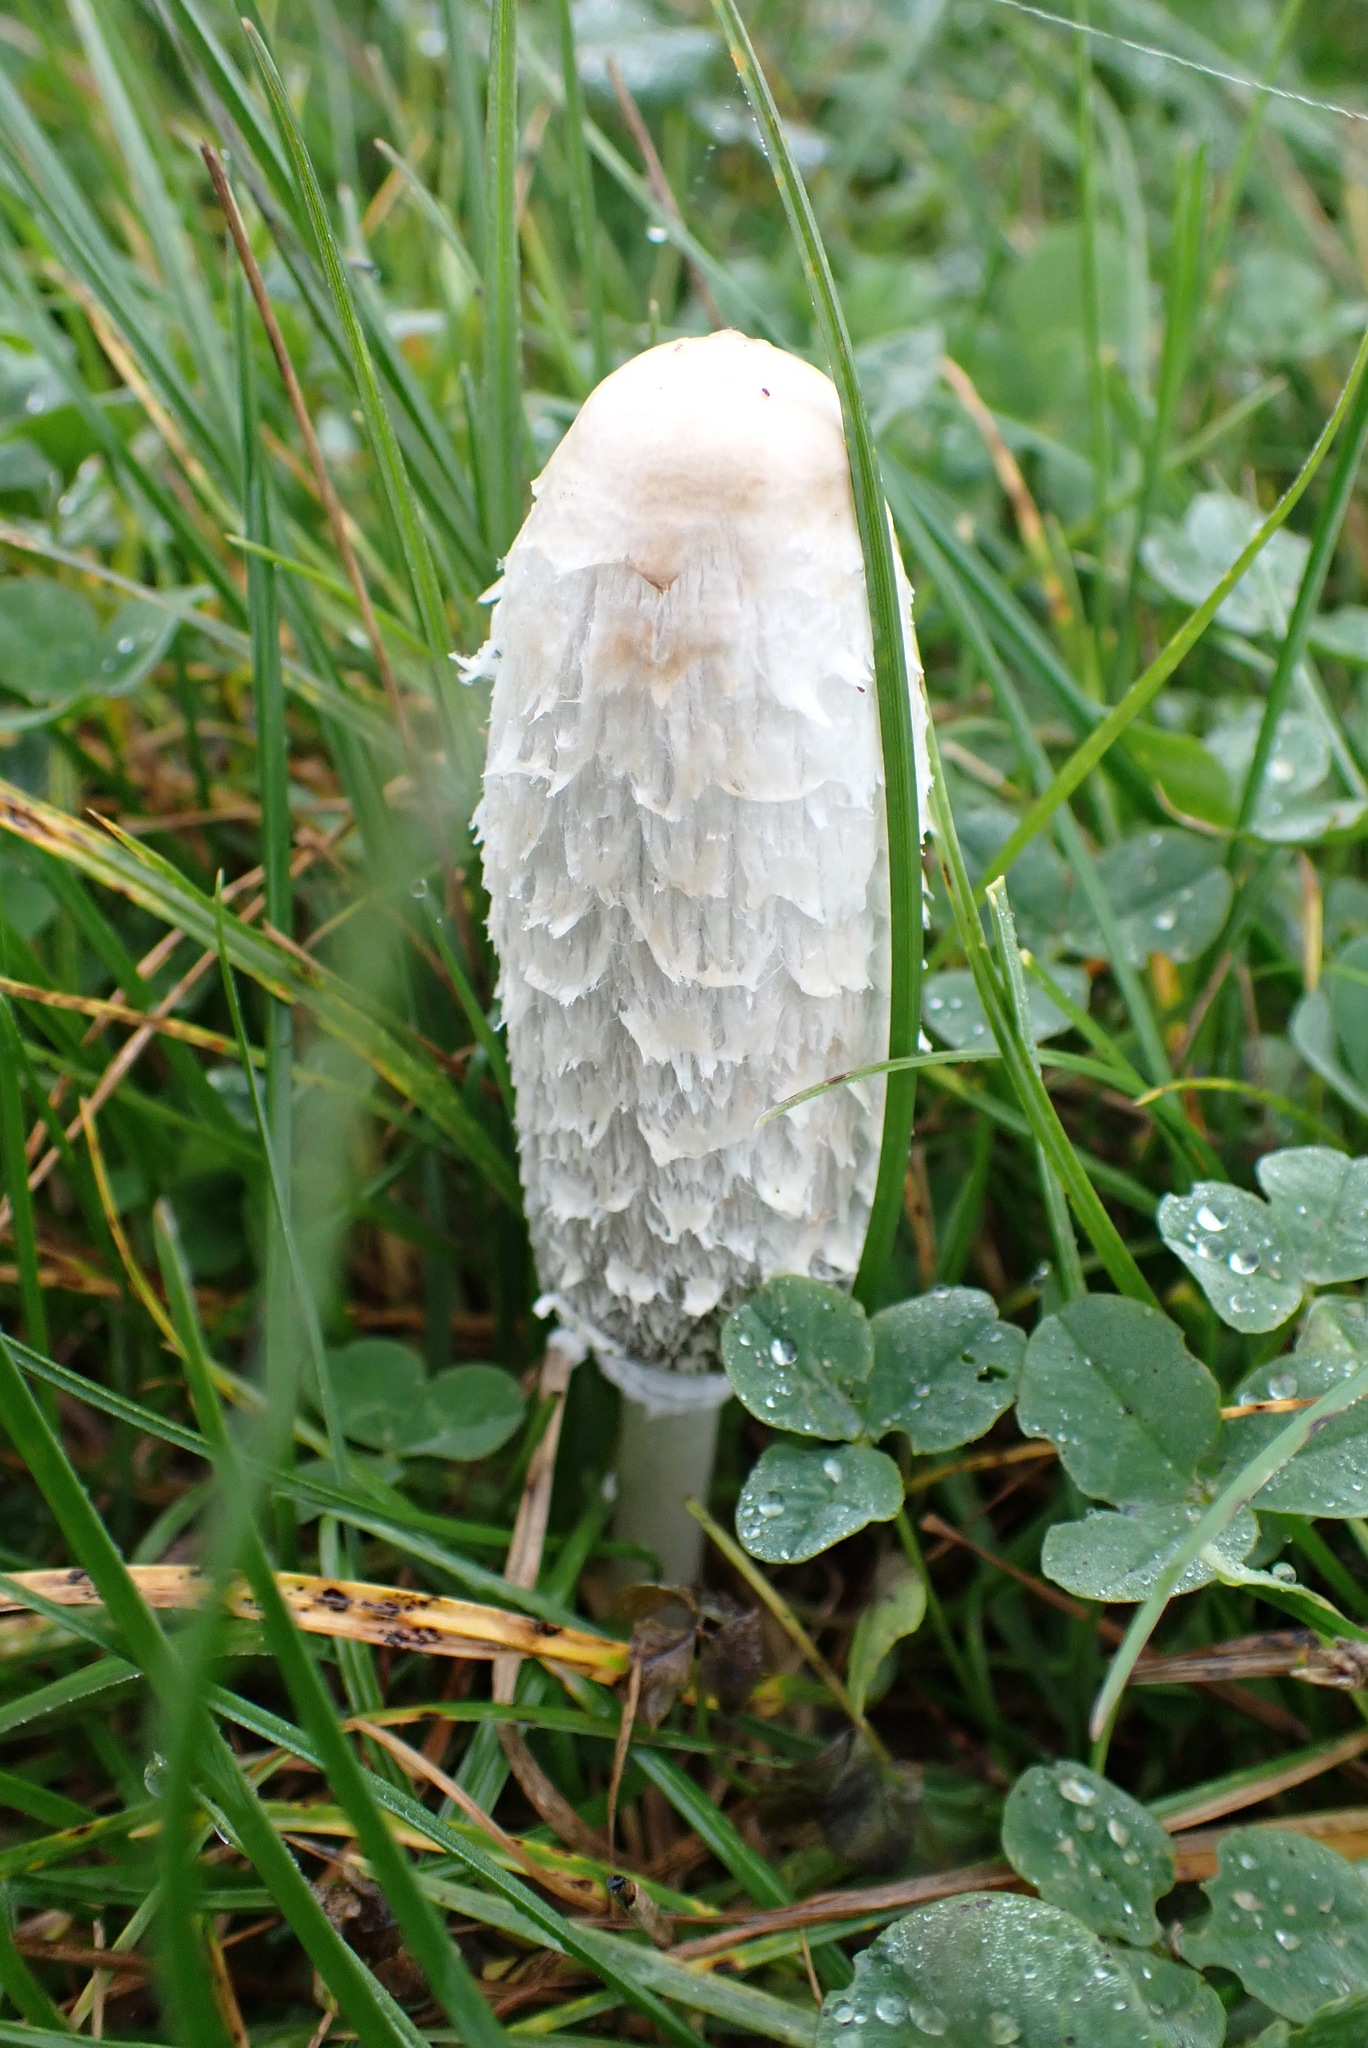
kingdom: Fungi
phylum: Basidiomycota
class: Agaricomycetes
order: Agaricales
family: Agaricaceae
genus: Coprinus
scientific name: Coprinus comatus
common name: Lawyer's wig
